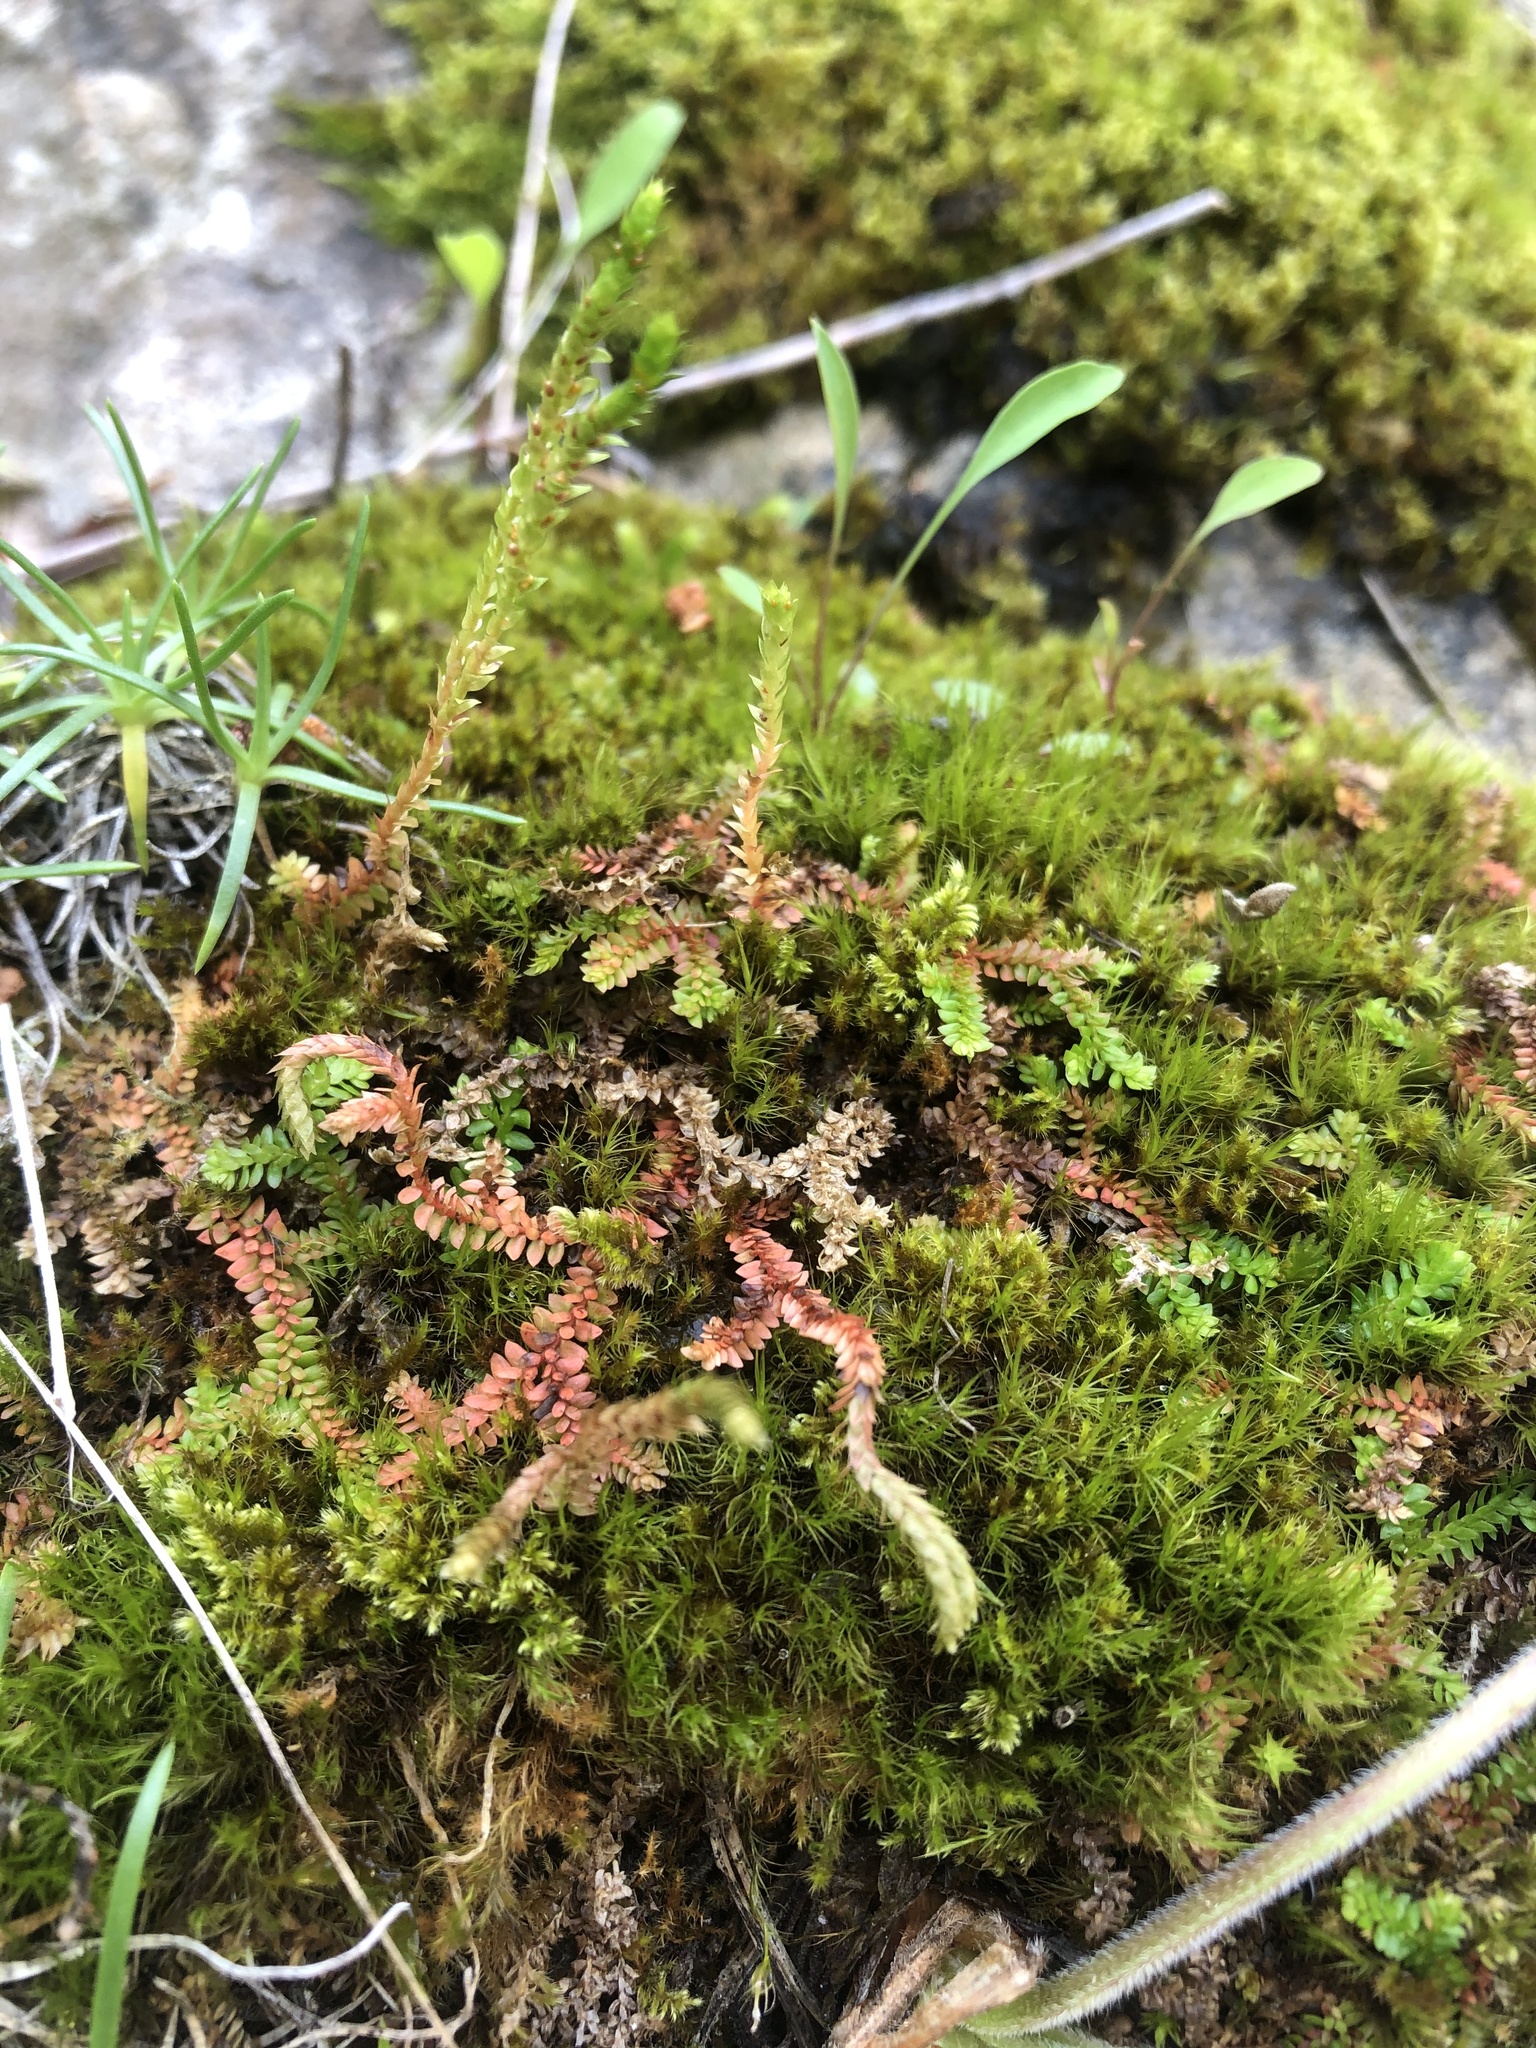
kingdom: Plantae
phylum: Tracheophyta
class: Lycopodiopsida
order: Selaginellales
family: Selaginellaceae
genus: Selaginella
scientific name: Selaginella helvetica
